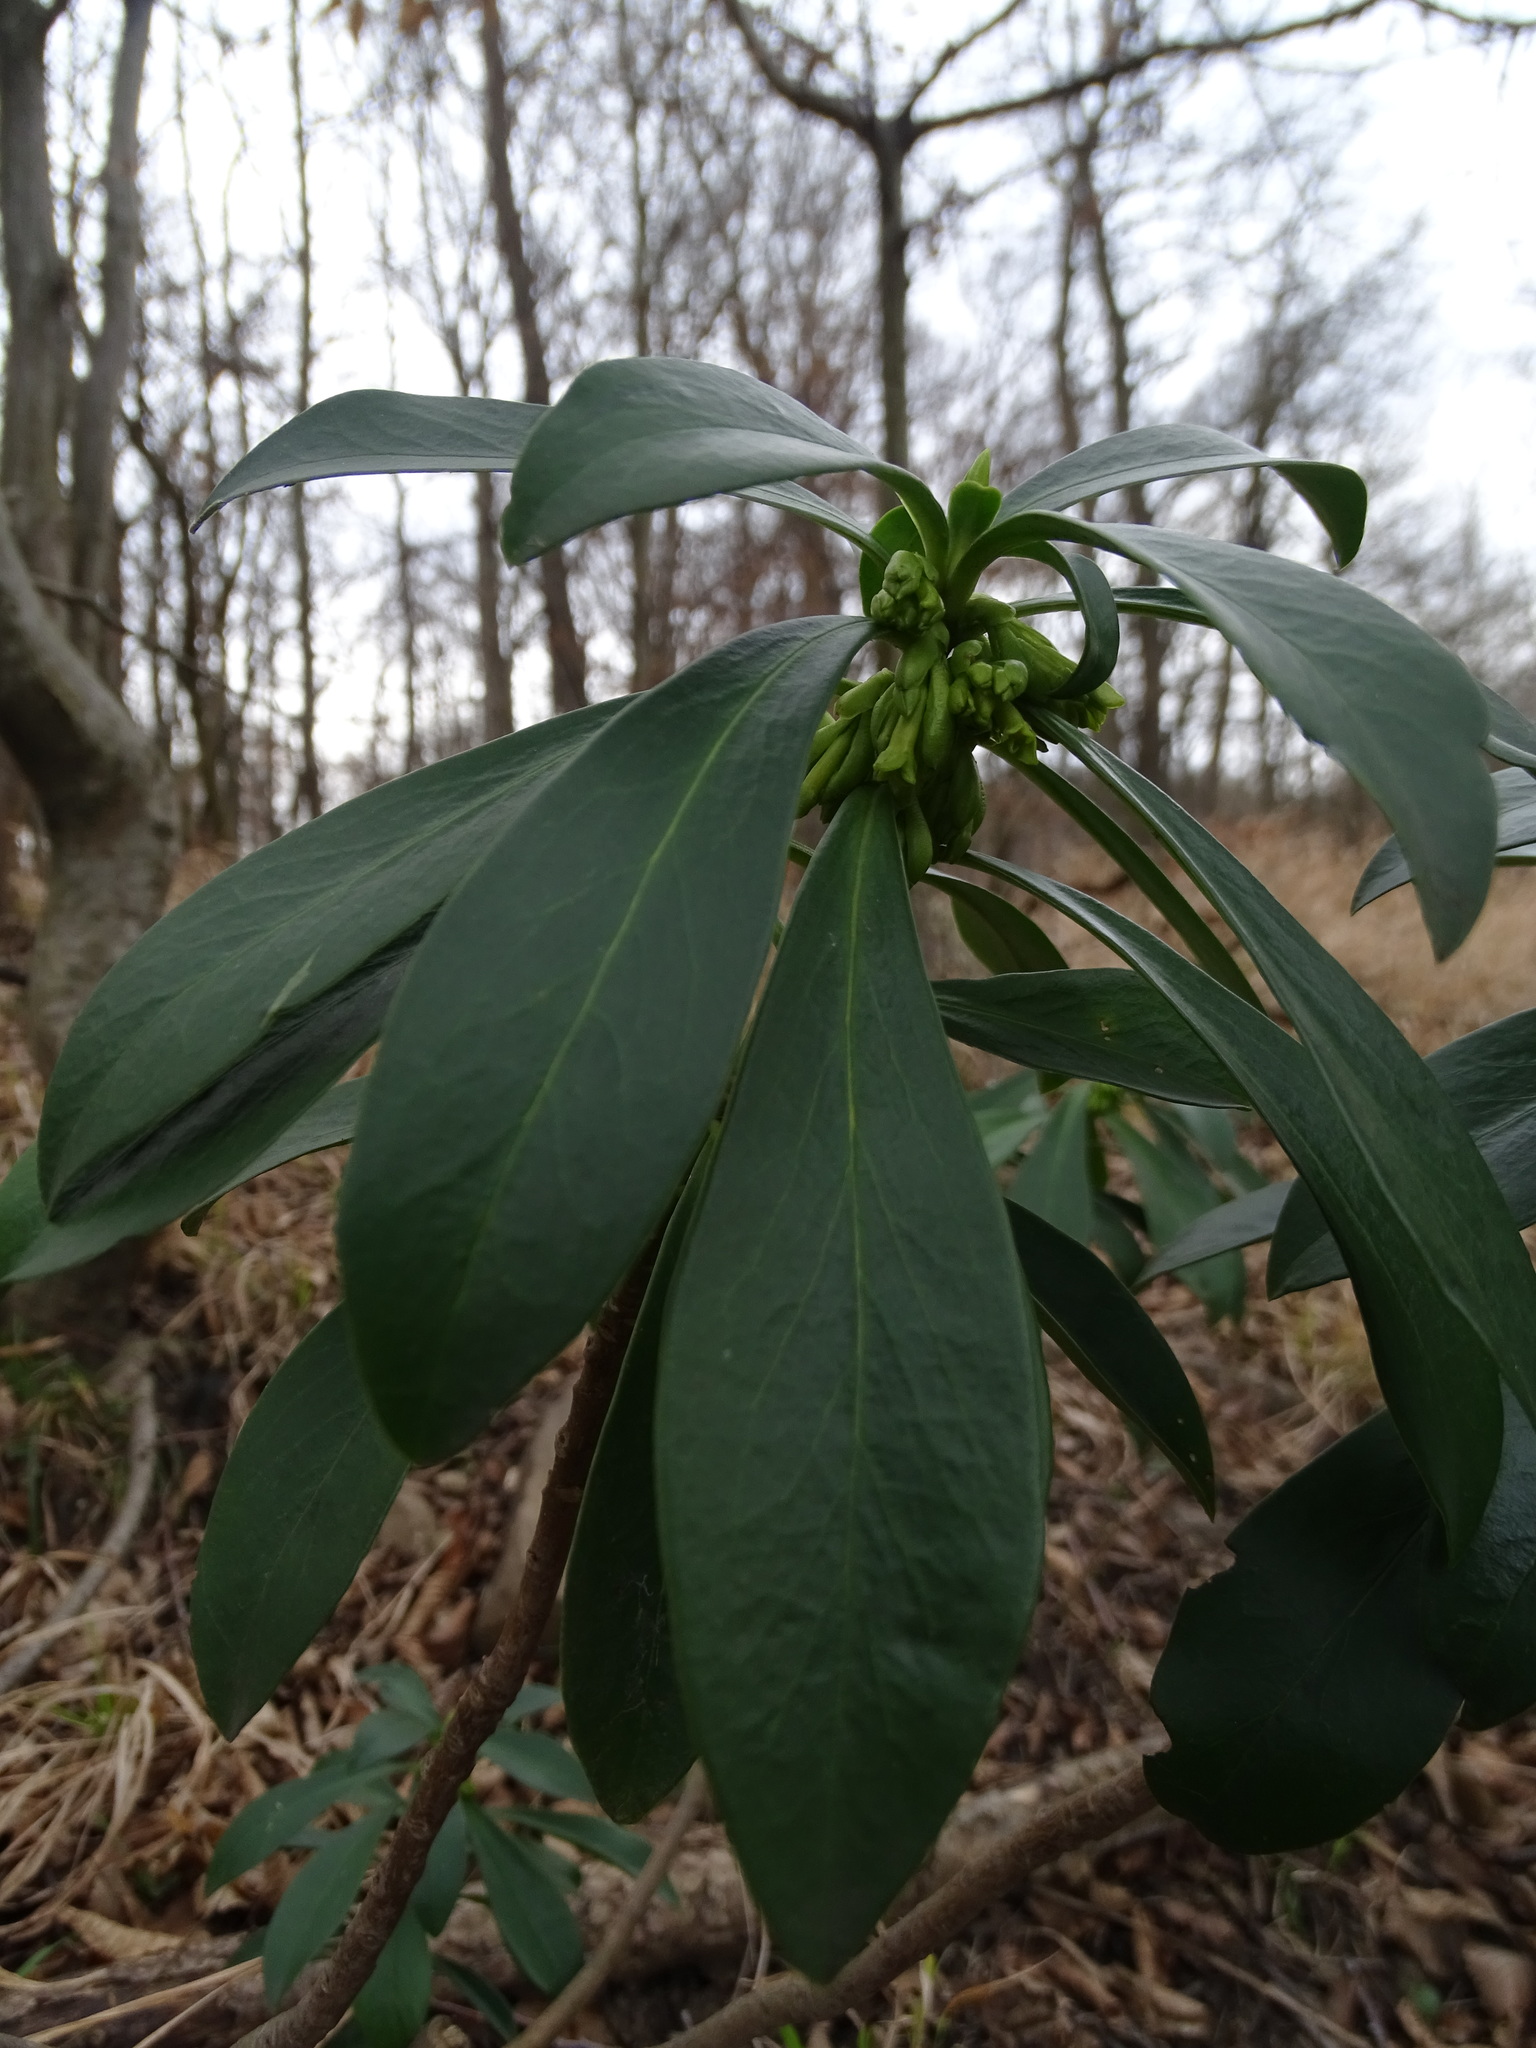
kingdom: Plantae
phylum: Tracheophyta
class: Magnoliopsida
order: Malvales
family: Thymelaeaceae
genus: Daphne
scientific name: Daphne laureola
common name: Spurge-laurel
